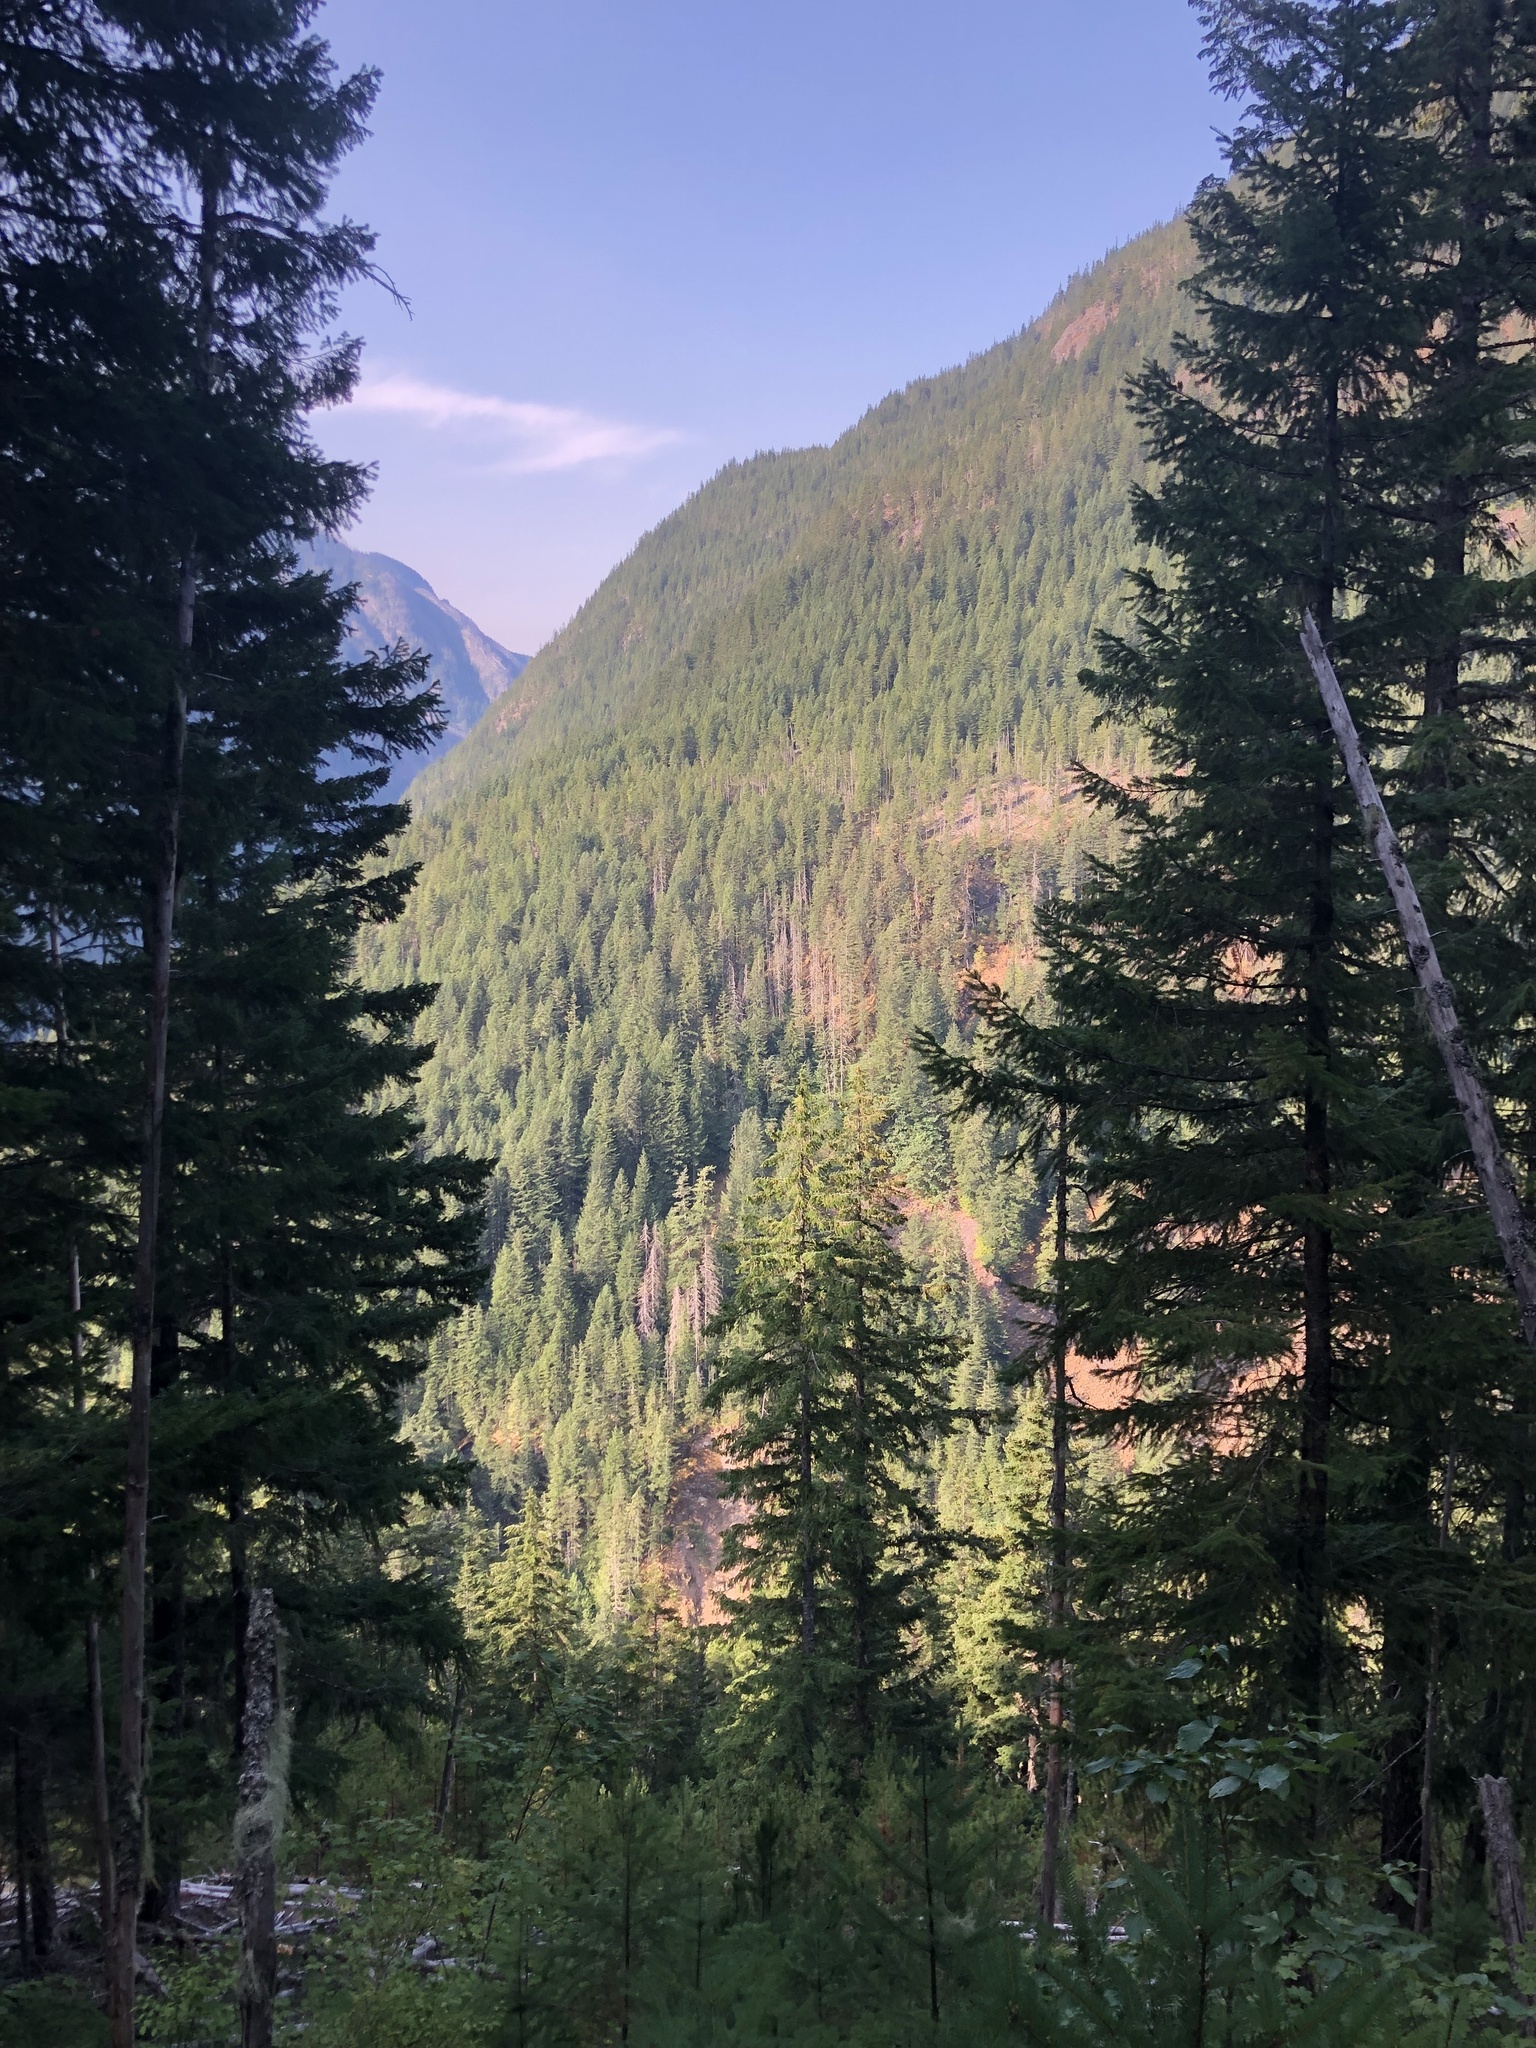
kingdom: Plantae
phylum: Tracheophyta
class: Pinopsida
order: Pinales
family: Pinaceae
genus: Pseudotsuga
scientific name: Pseudotsuga menziesii
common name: Douglas fir
